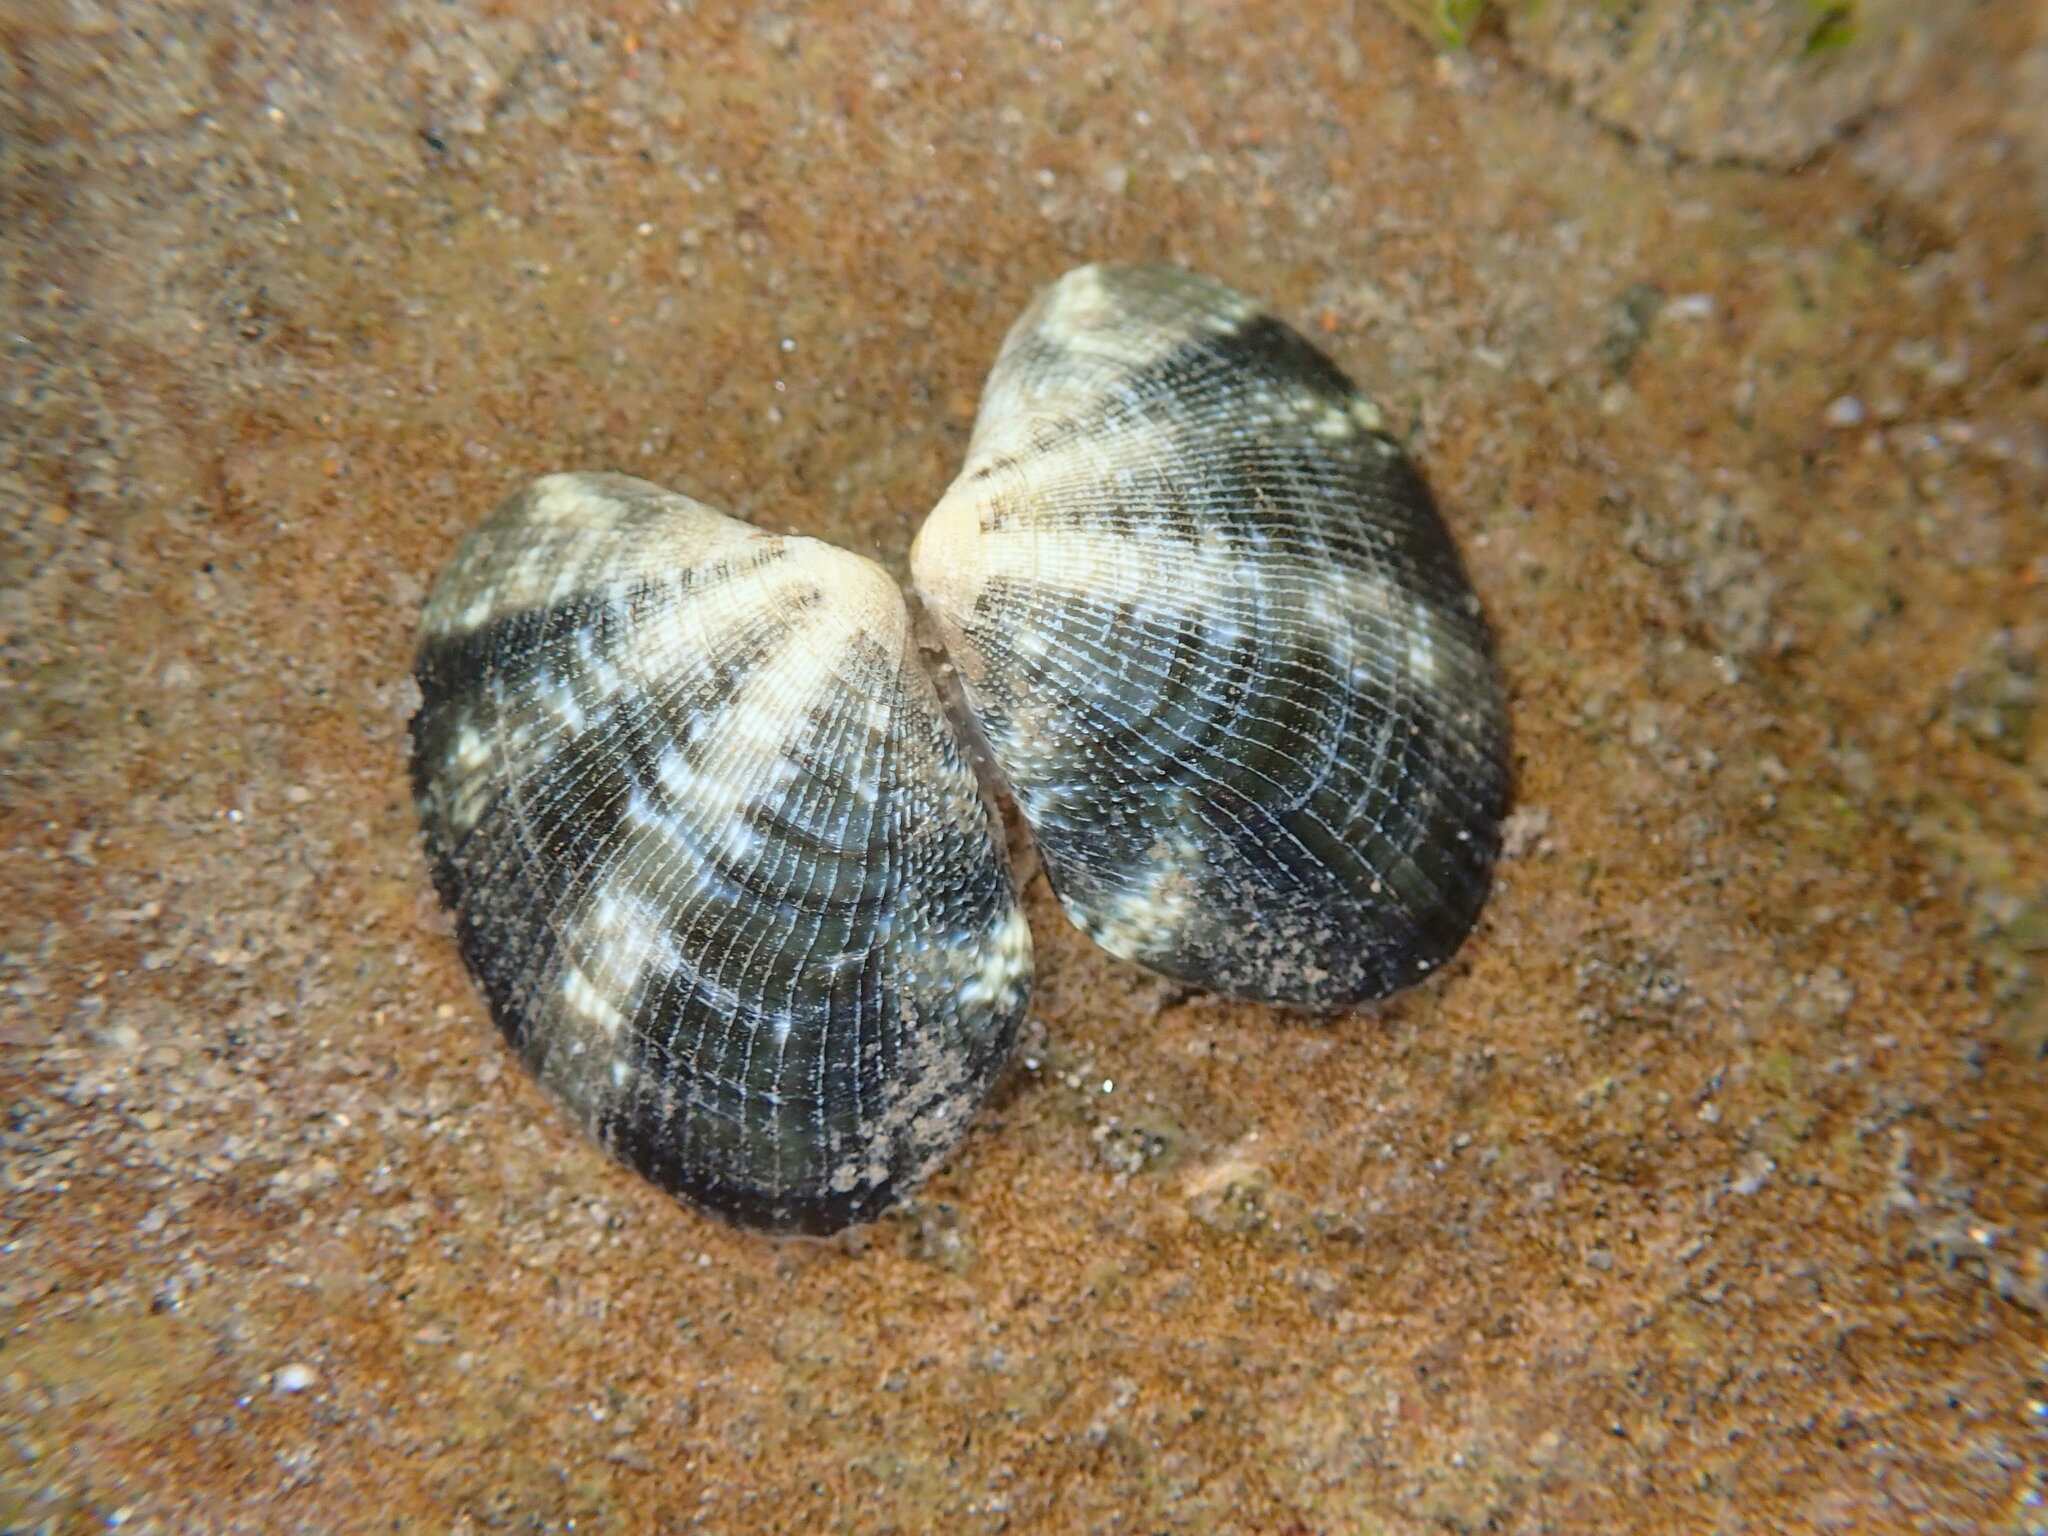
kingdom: Animalia
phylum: Mollusca
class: Bivalvia
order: Venerida
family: Veneridae
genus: Ruditapes
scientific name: Ruditapes philippinarum
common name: Manila clam
